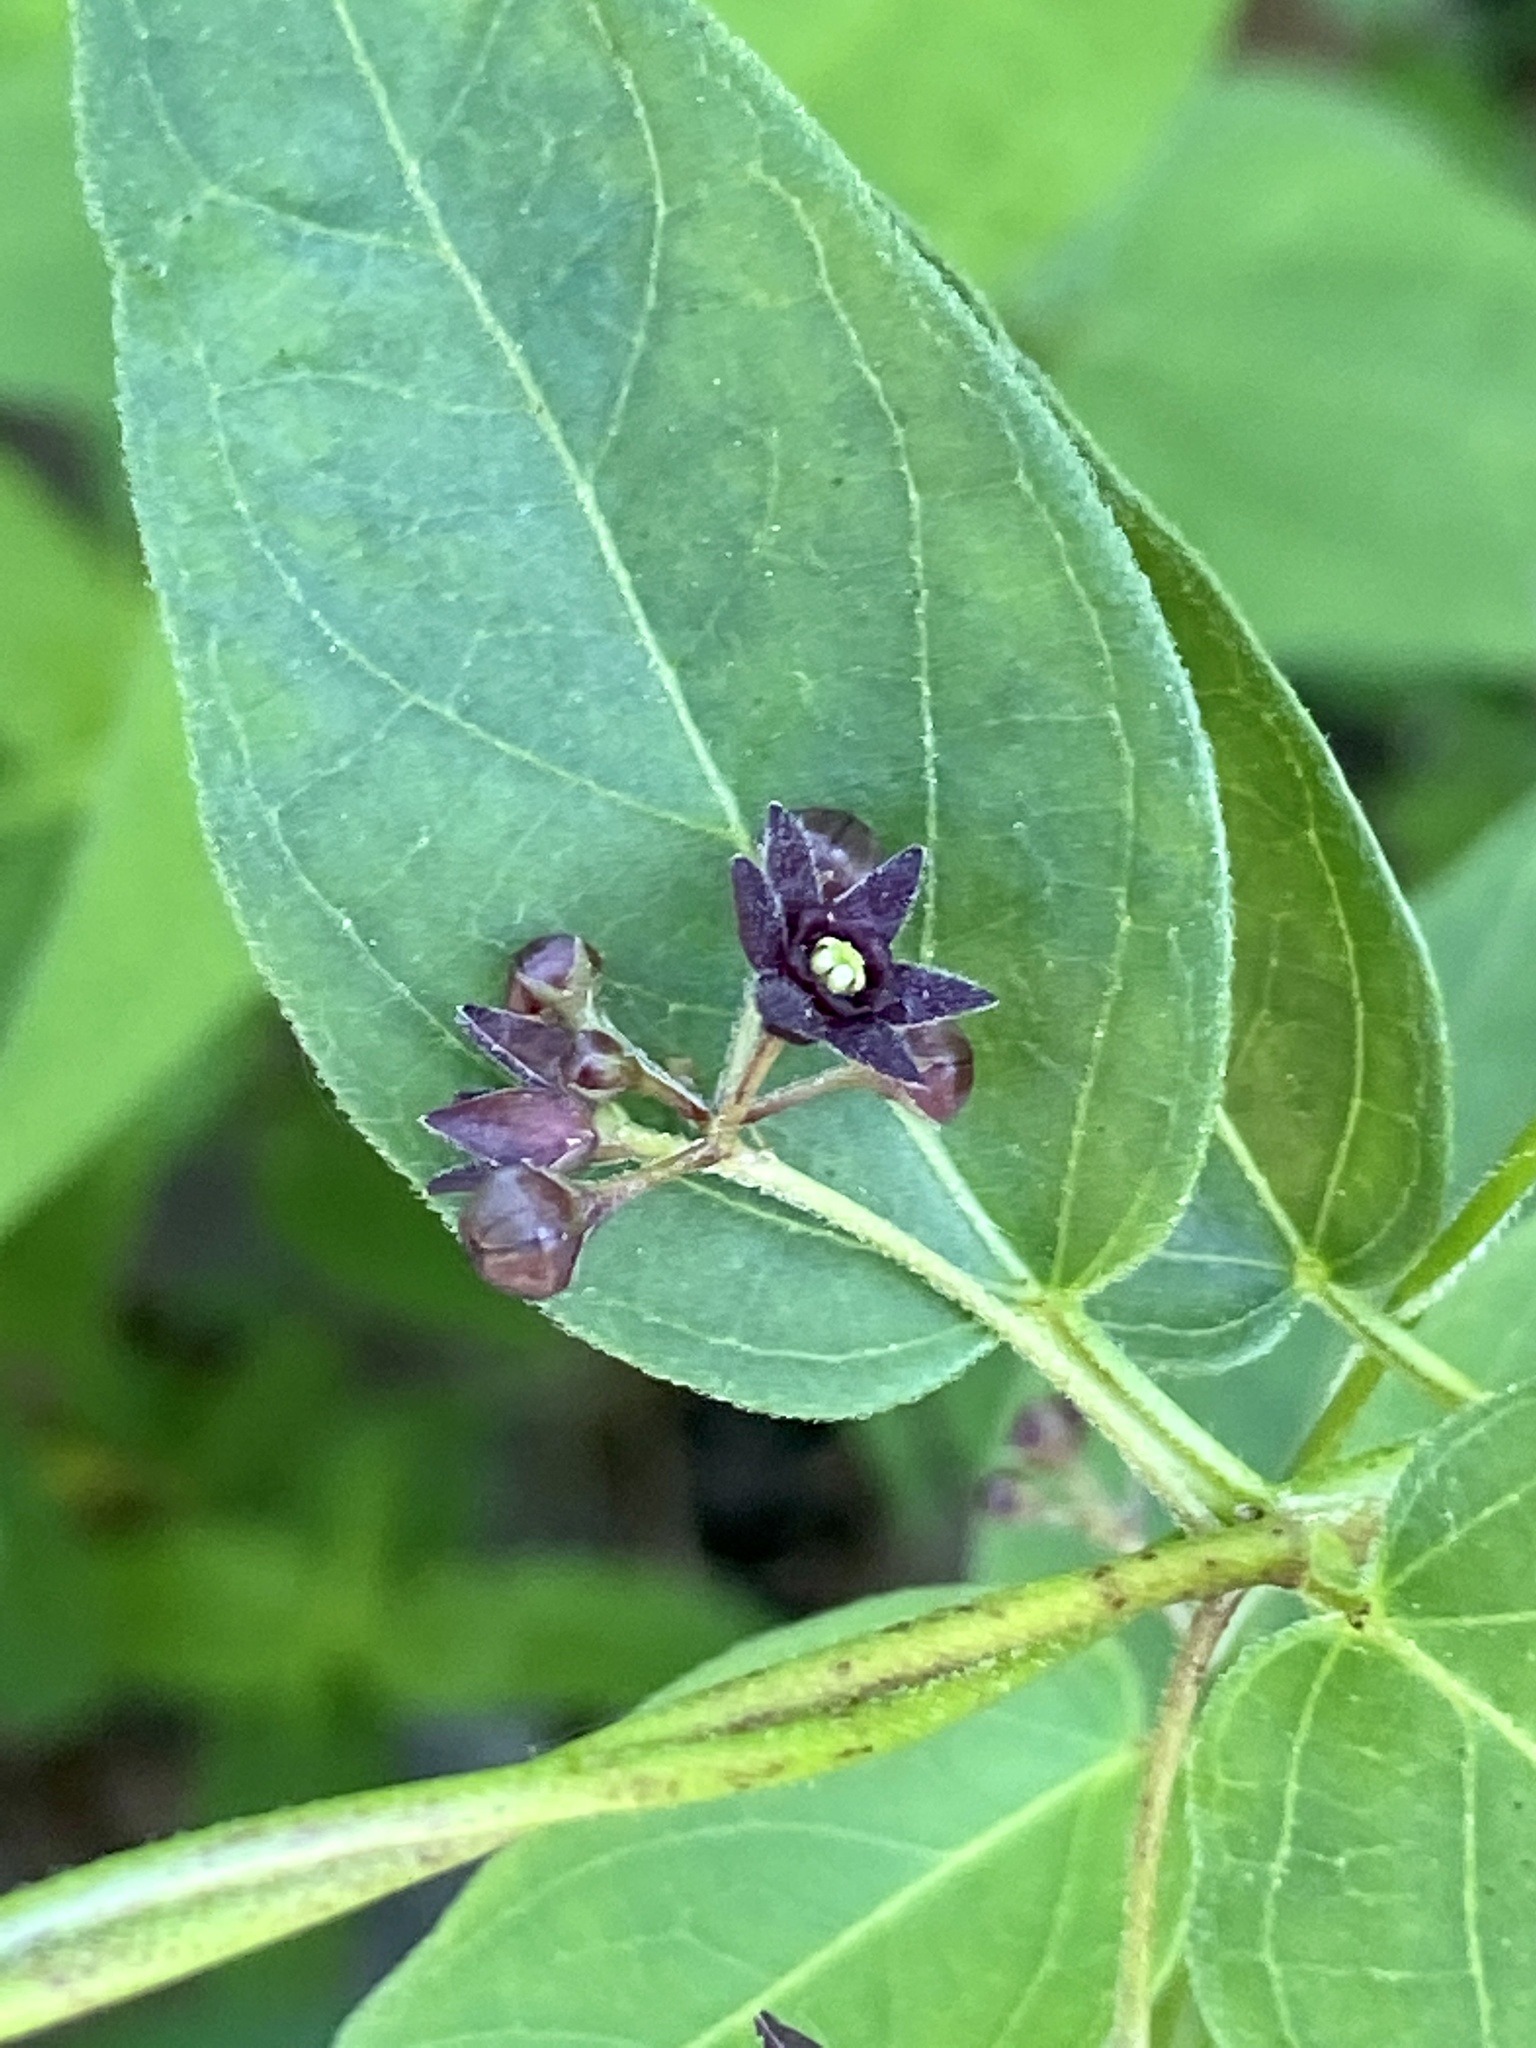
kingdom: Plantae
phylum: Tracheophyta
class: Magnoliopsida
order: Gentianales
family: Apocynaceae
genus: Vincetoxicum
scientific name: Vincetoxicum nigrum
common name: Black swallow-wort
